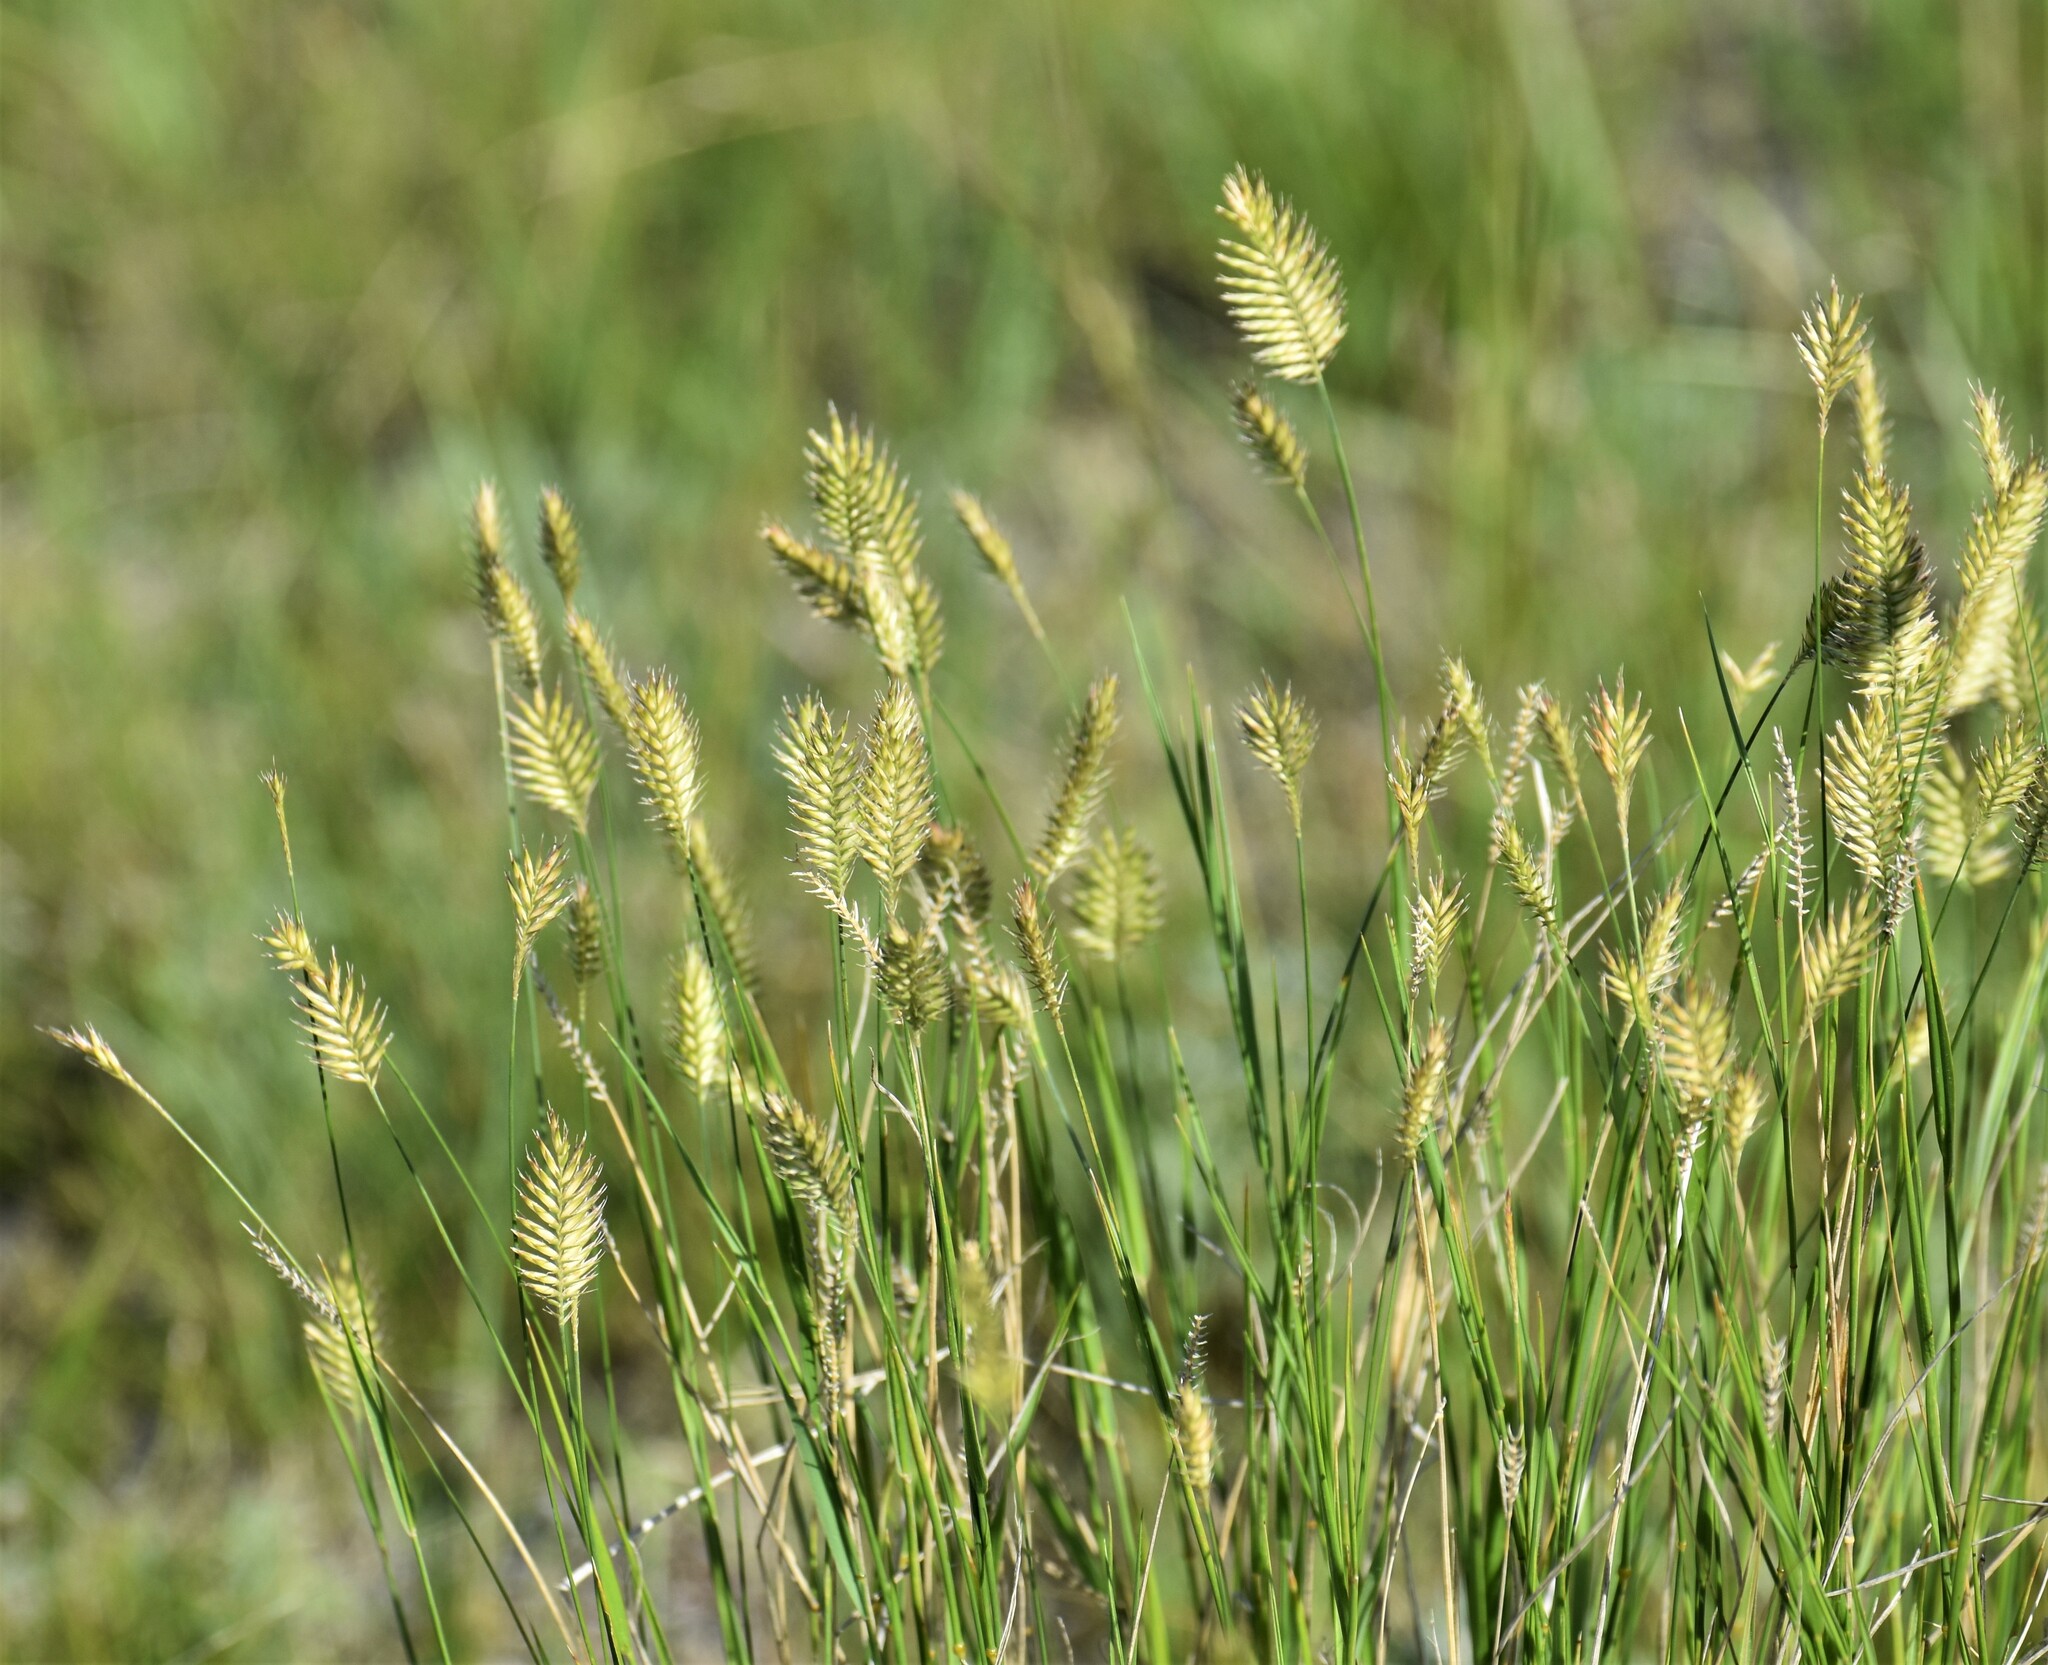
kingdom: Plantae
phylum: Tracheophyta
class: Liliopsida
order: Poales
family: Poaceae
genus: Agropyron
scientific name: Agropyron cristatum
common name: Crested wheatgrass
